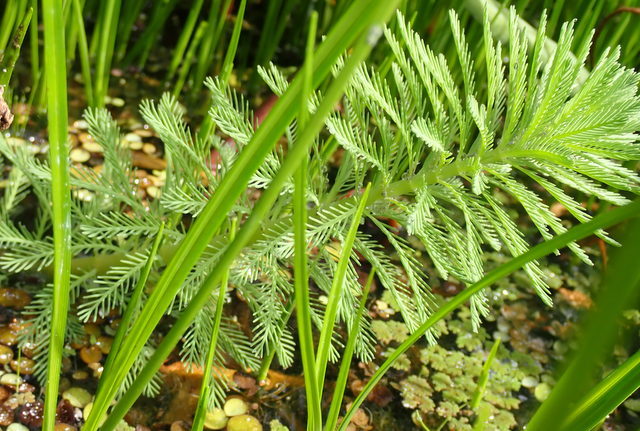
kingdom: Plantae
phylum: Tracheophyta
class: Magnoliopsida
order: Saxifragales
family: Haloragaceae
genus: Myriophyllum
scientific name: Myriophyllum aquaticum
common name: Parrot's feather
